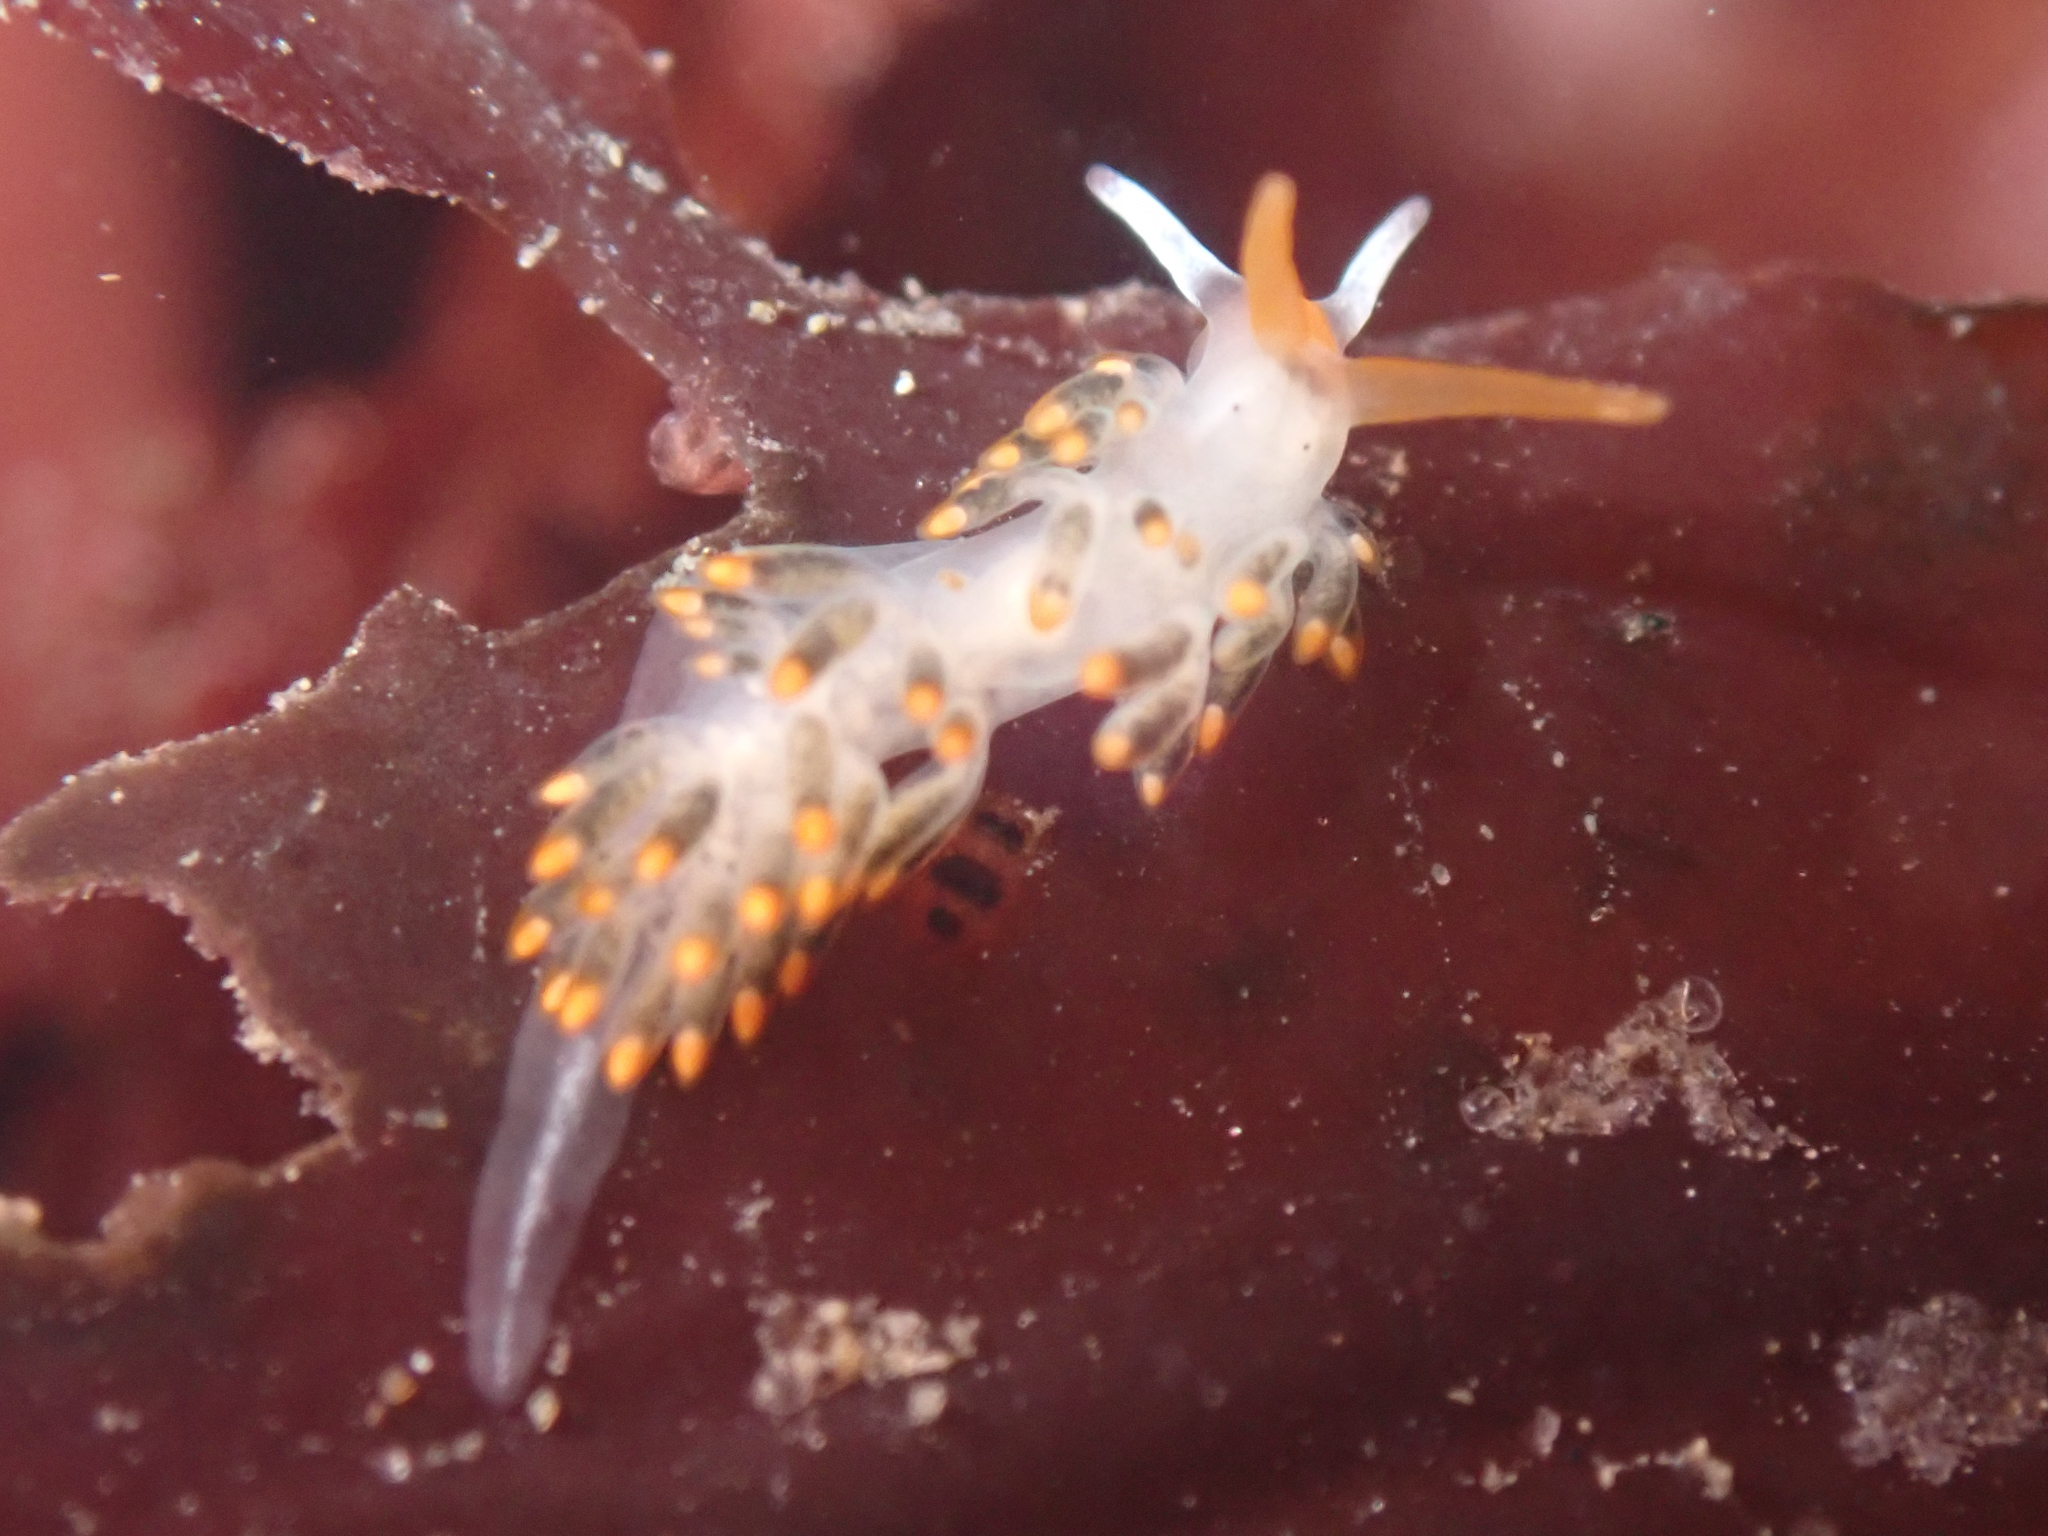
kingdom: Animalia
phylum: Mollusca
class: Gastropoda
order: Nudibranchia
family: Trinchesiidae
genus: Diaphoreolis
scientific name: Diaphoreolis lagunae
